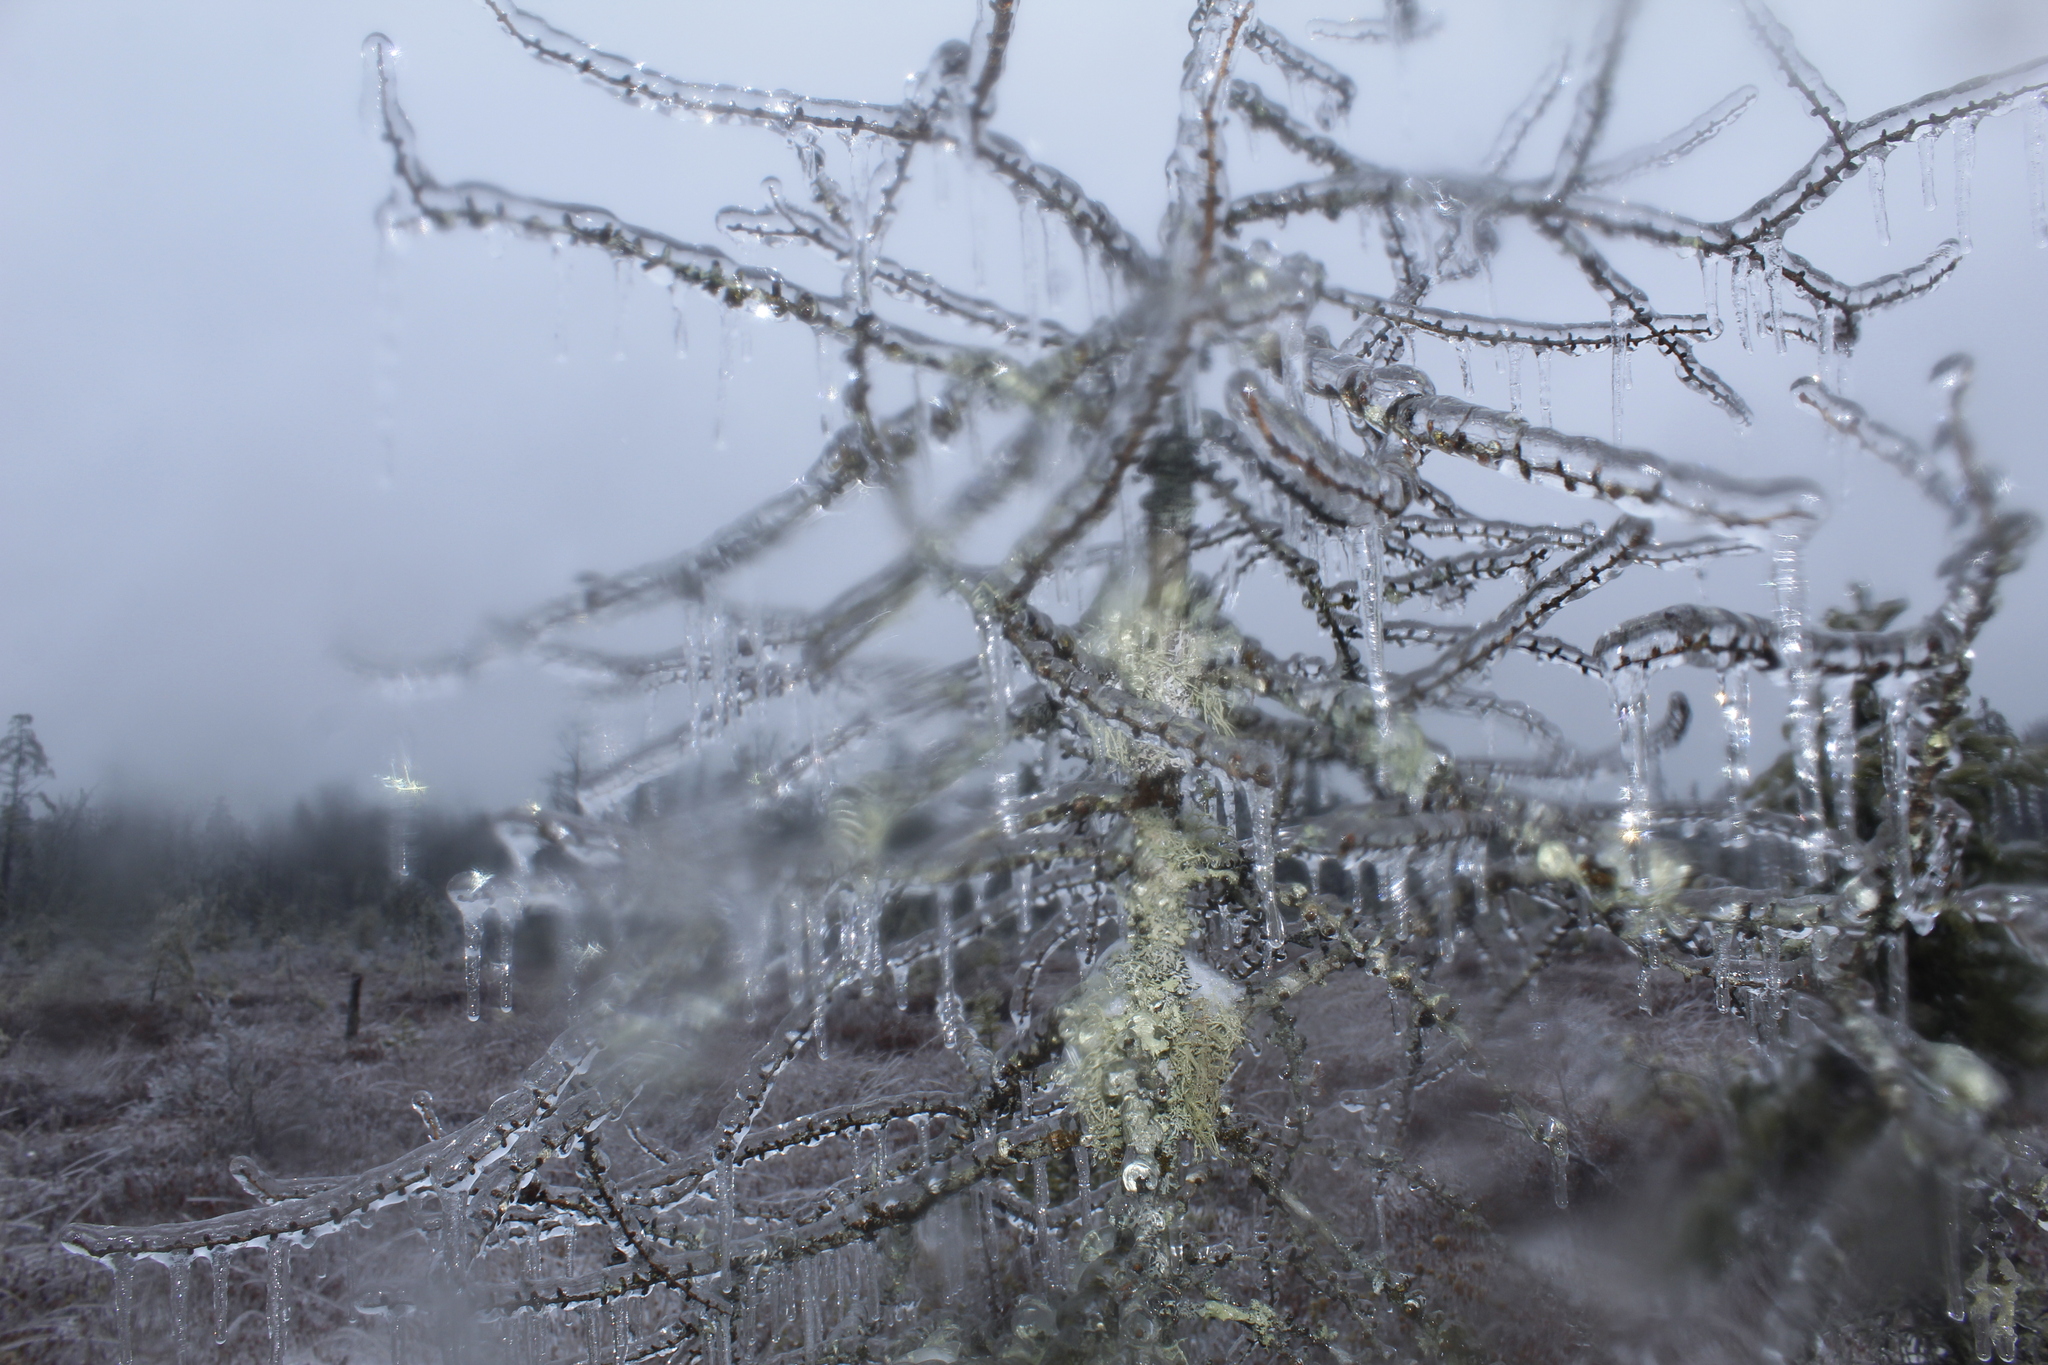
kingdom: Plantae
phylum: Tracheophyta
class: Pinopsida
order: Pinales
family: Pinaceae
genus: Larix
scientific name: Larix laricina
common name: American larch
